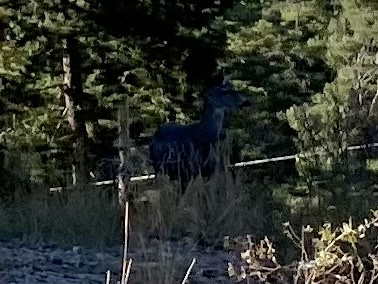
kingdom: Animalia
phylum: Chordata
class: Mammalia
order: Artiodactyla
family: Cervidae
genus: Odocoileus
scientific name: Odocoileus hemionus
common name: Mule deer
